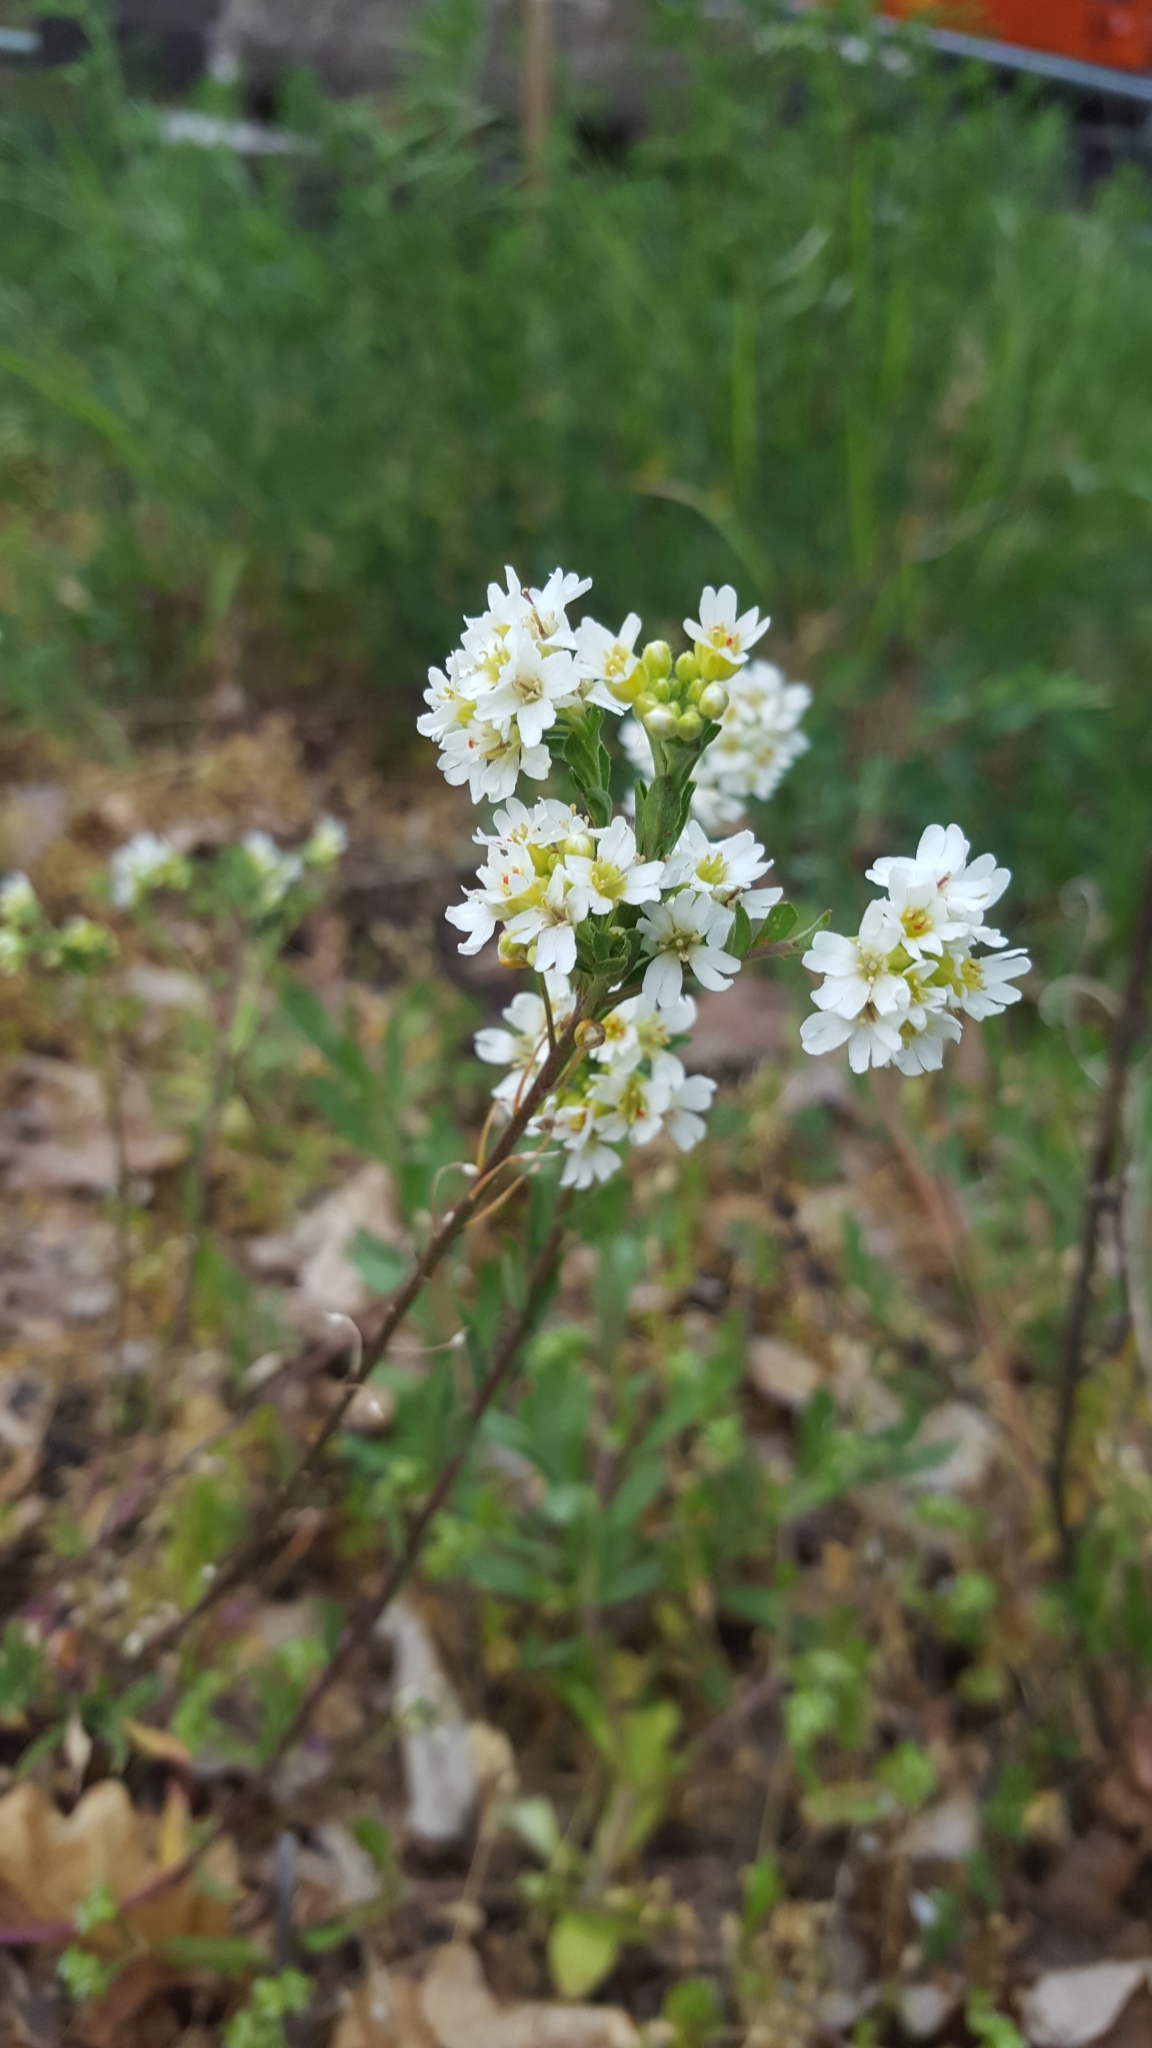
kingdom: Plantae
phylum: Tracheophyta
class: Magnoliopsida
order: Brassicales
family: Brassicaceae
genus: Berteroa
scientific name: Berteroa incana
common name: Hoary alison
